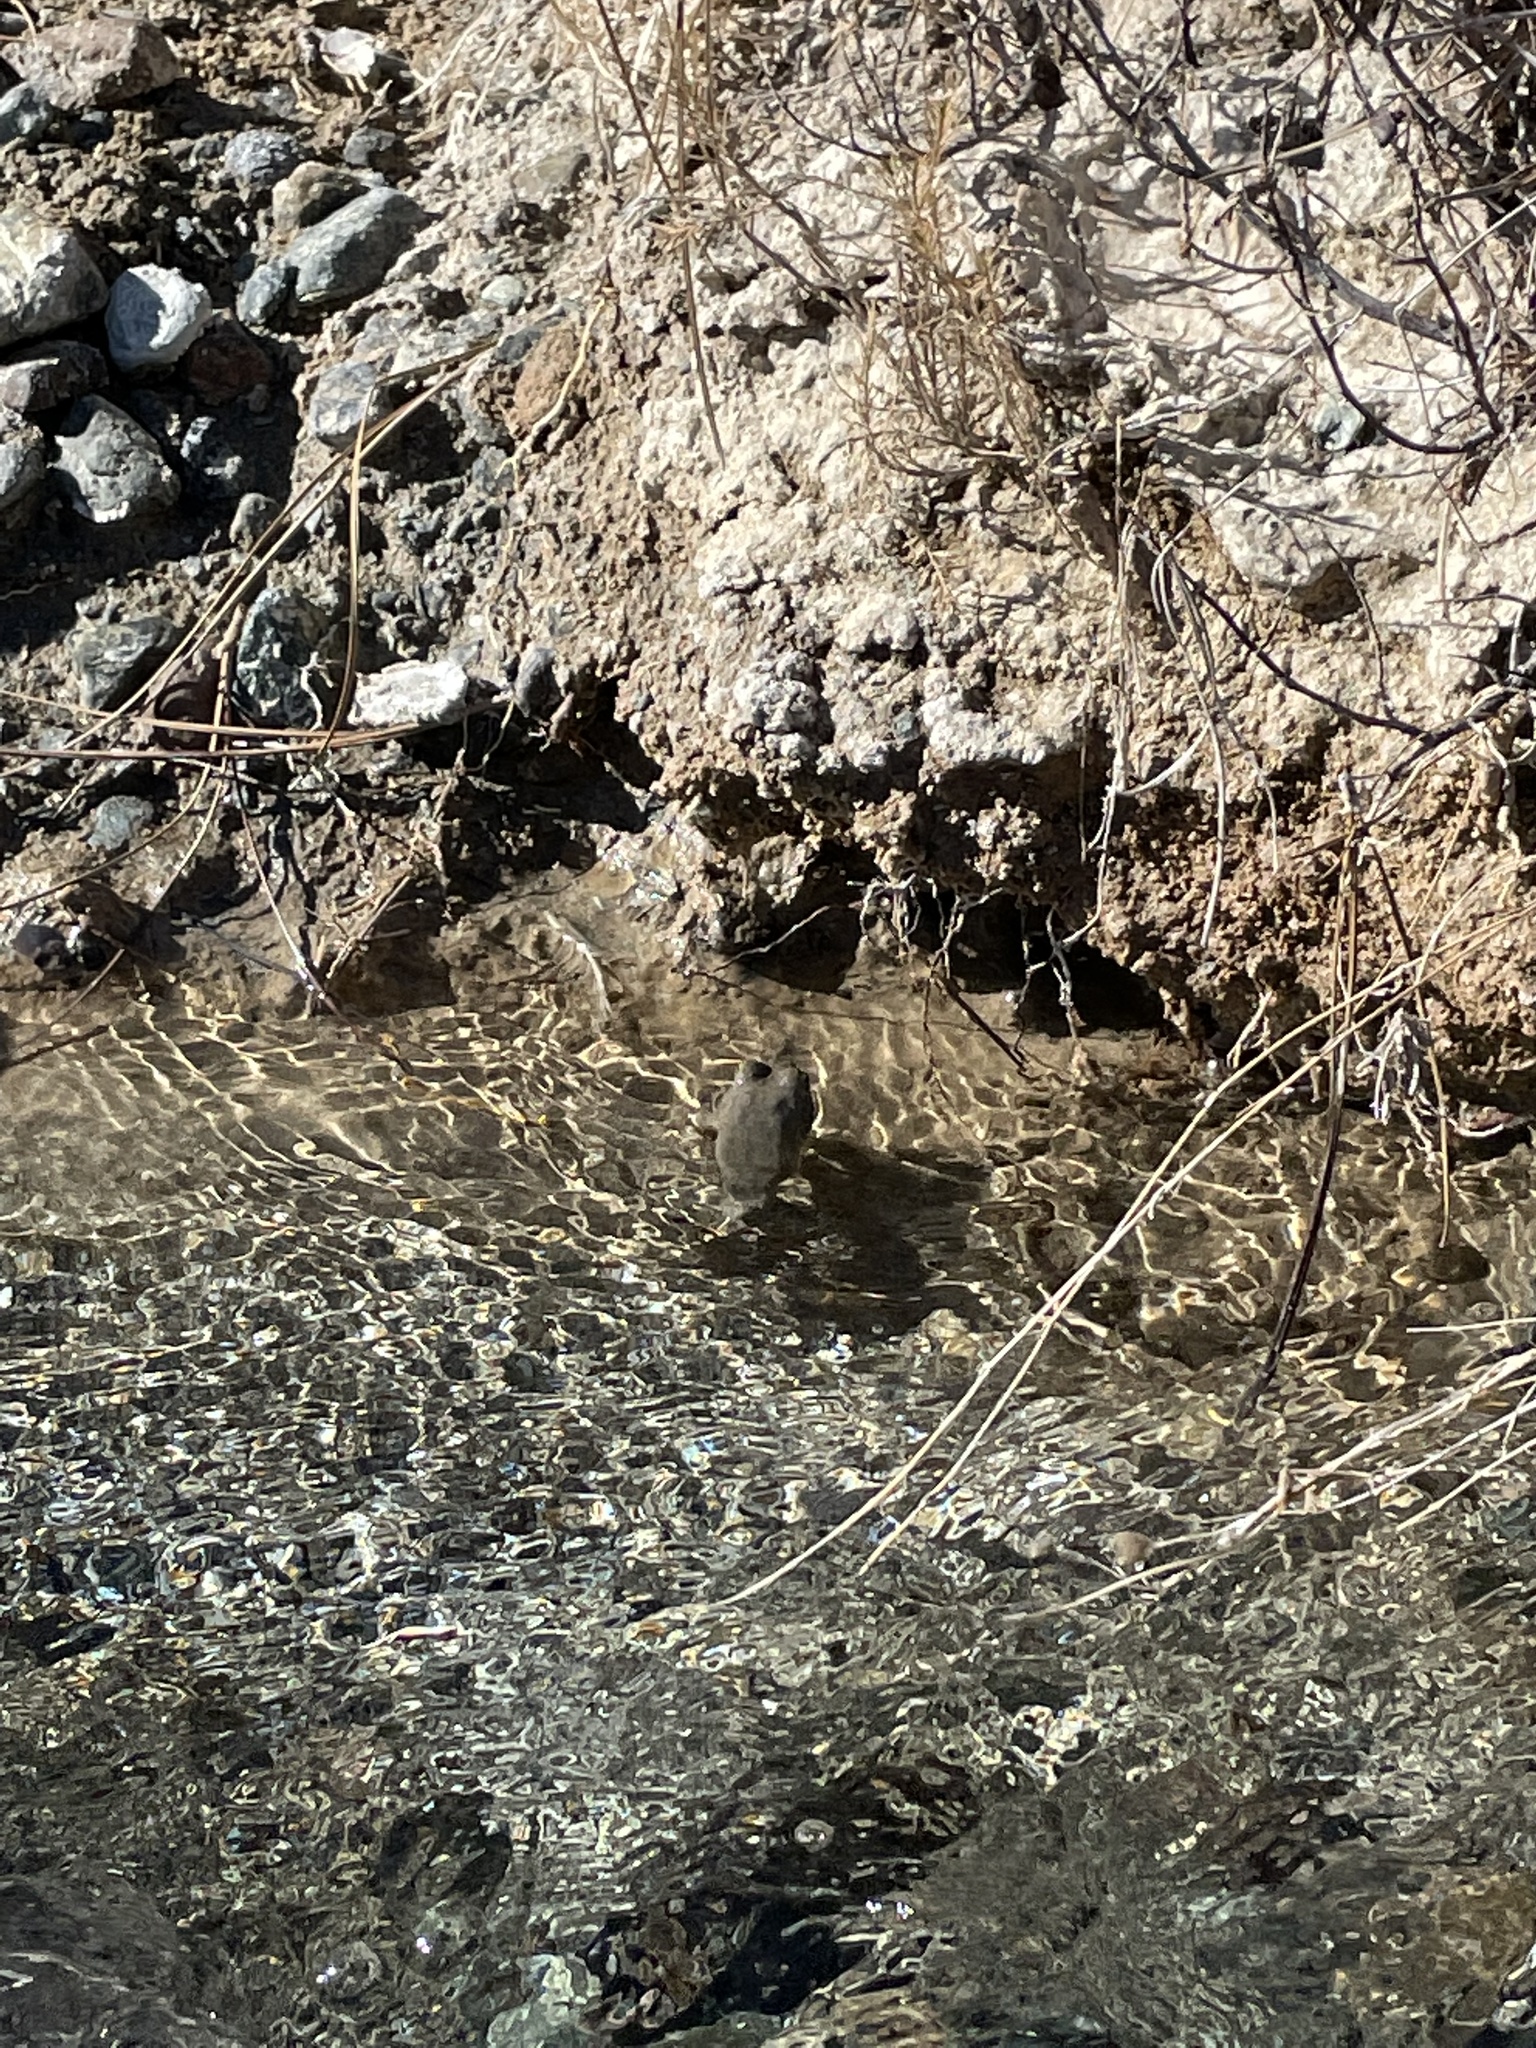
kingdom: Animalia
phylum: Chordata
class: Amphibia
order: Anura
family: Ranidae
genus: Rana
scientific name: Rana boylii
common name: Foothill yellow-legged frog
